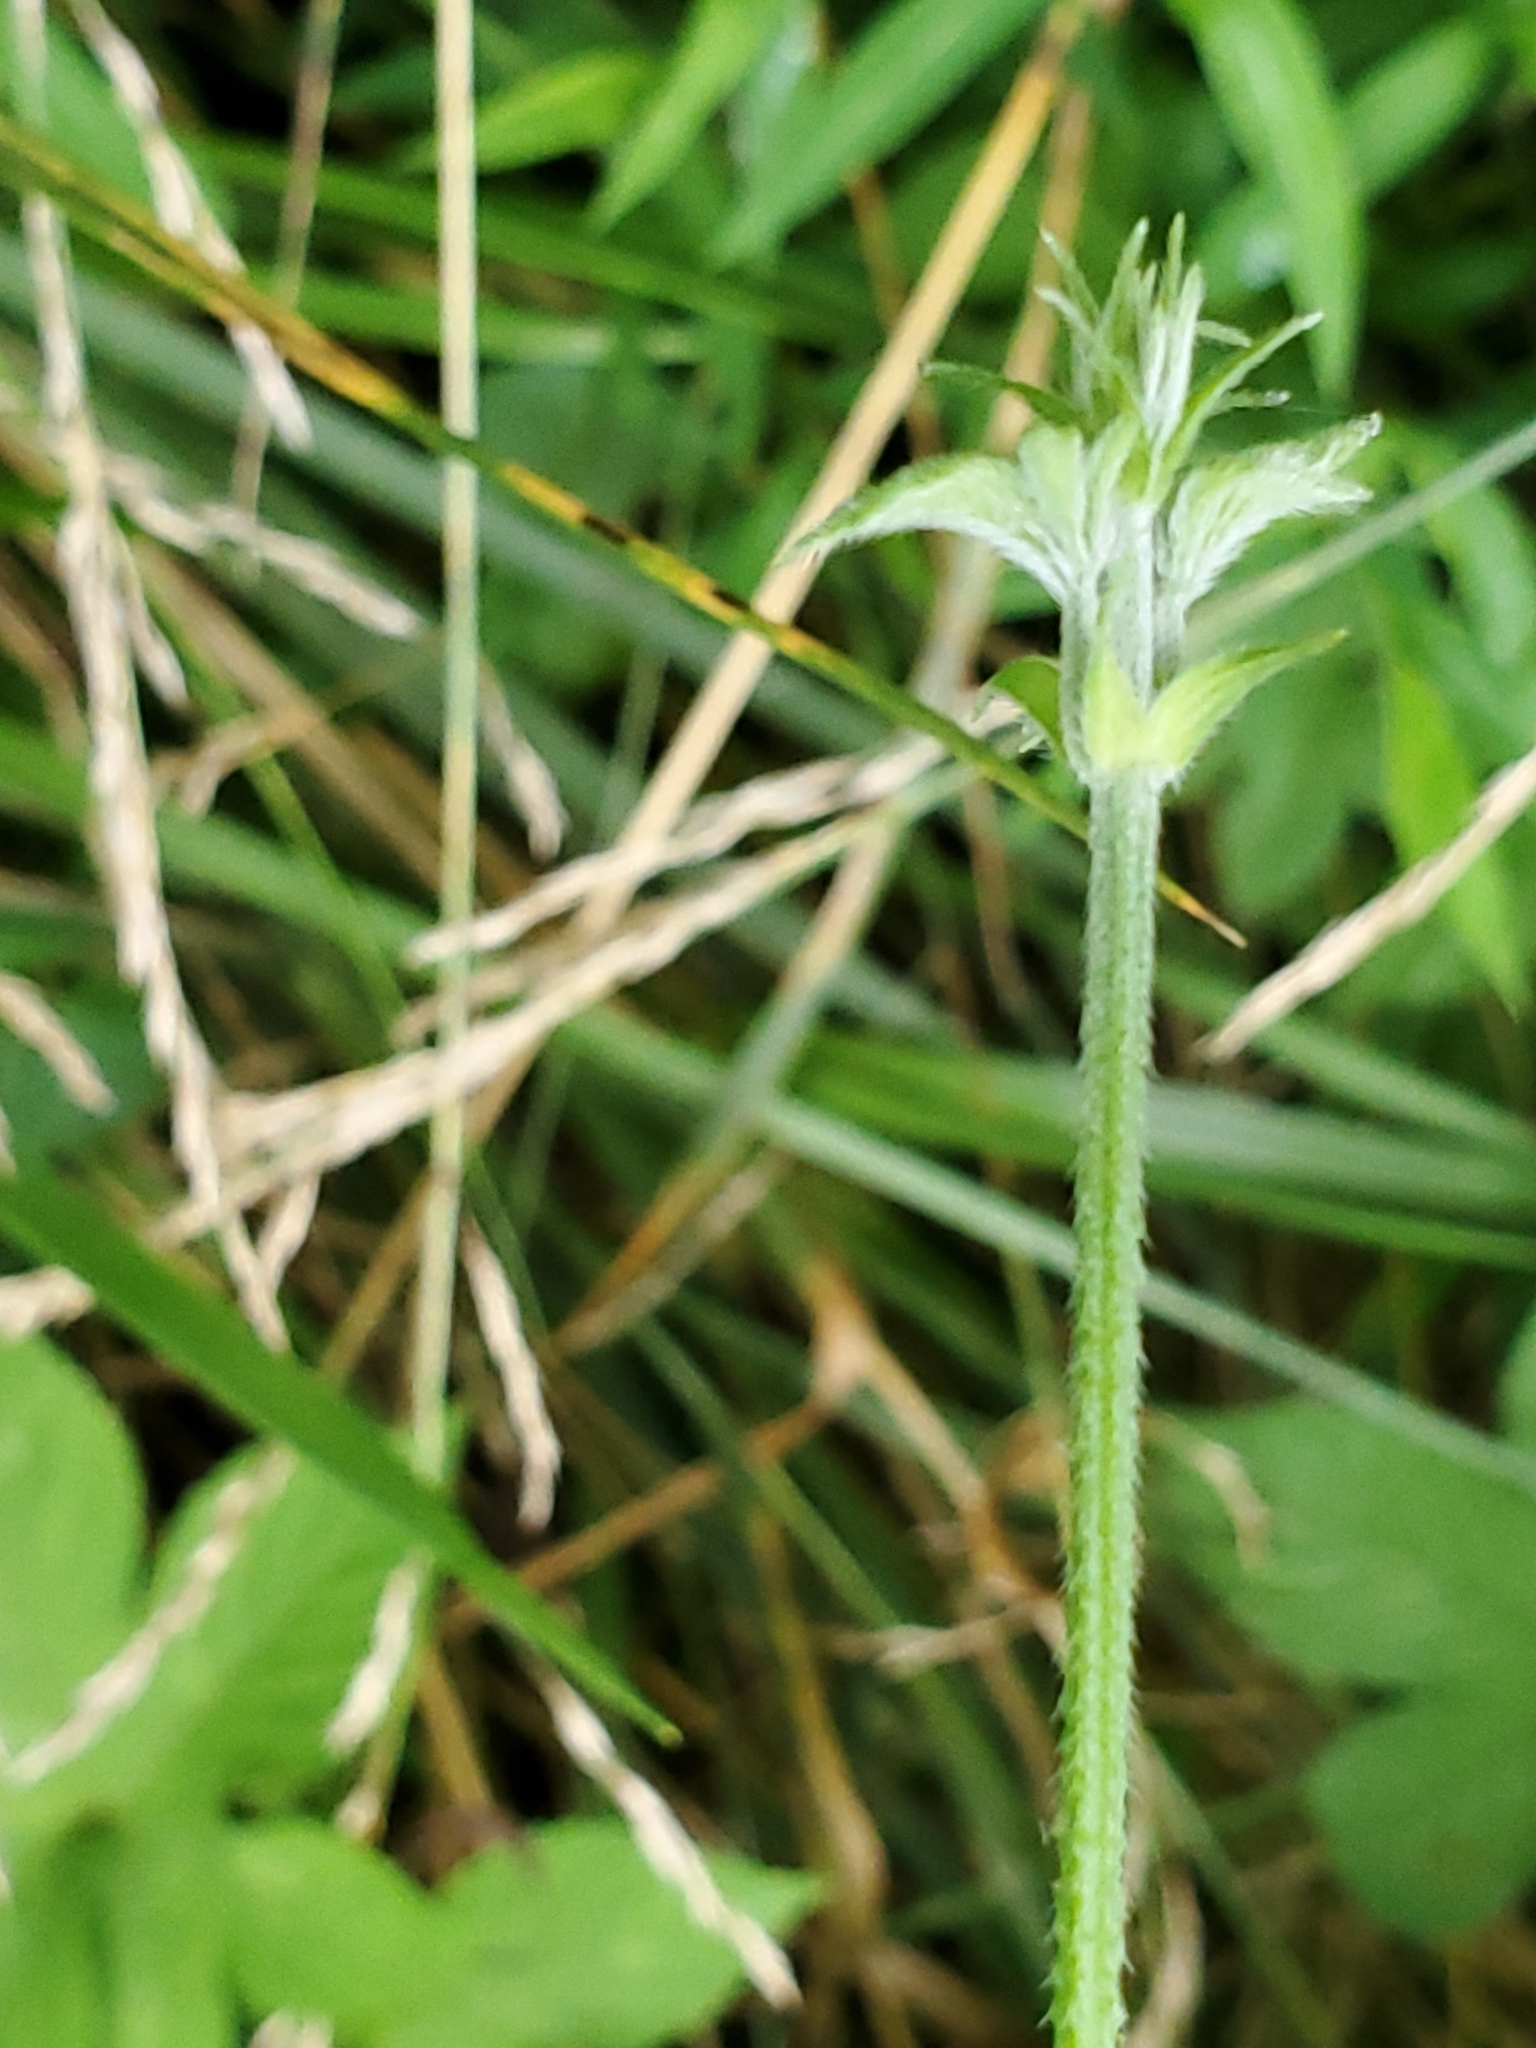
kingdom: Plantae
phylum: Tracheophyta
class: Magnoliopsida
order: Rosales
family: Cannabaceae
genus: Humulus
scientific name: Humulus scandens
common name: Japanese hop
